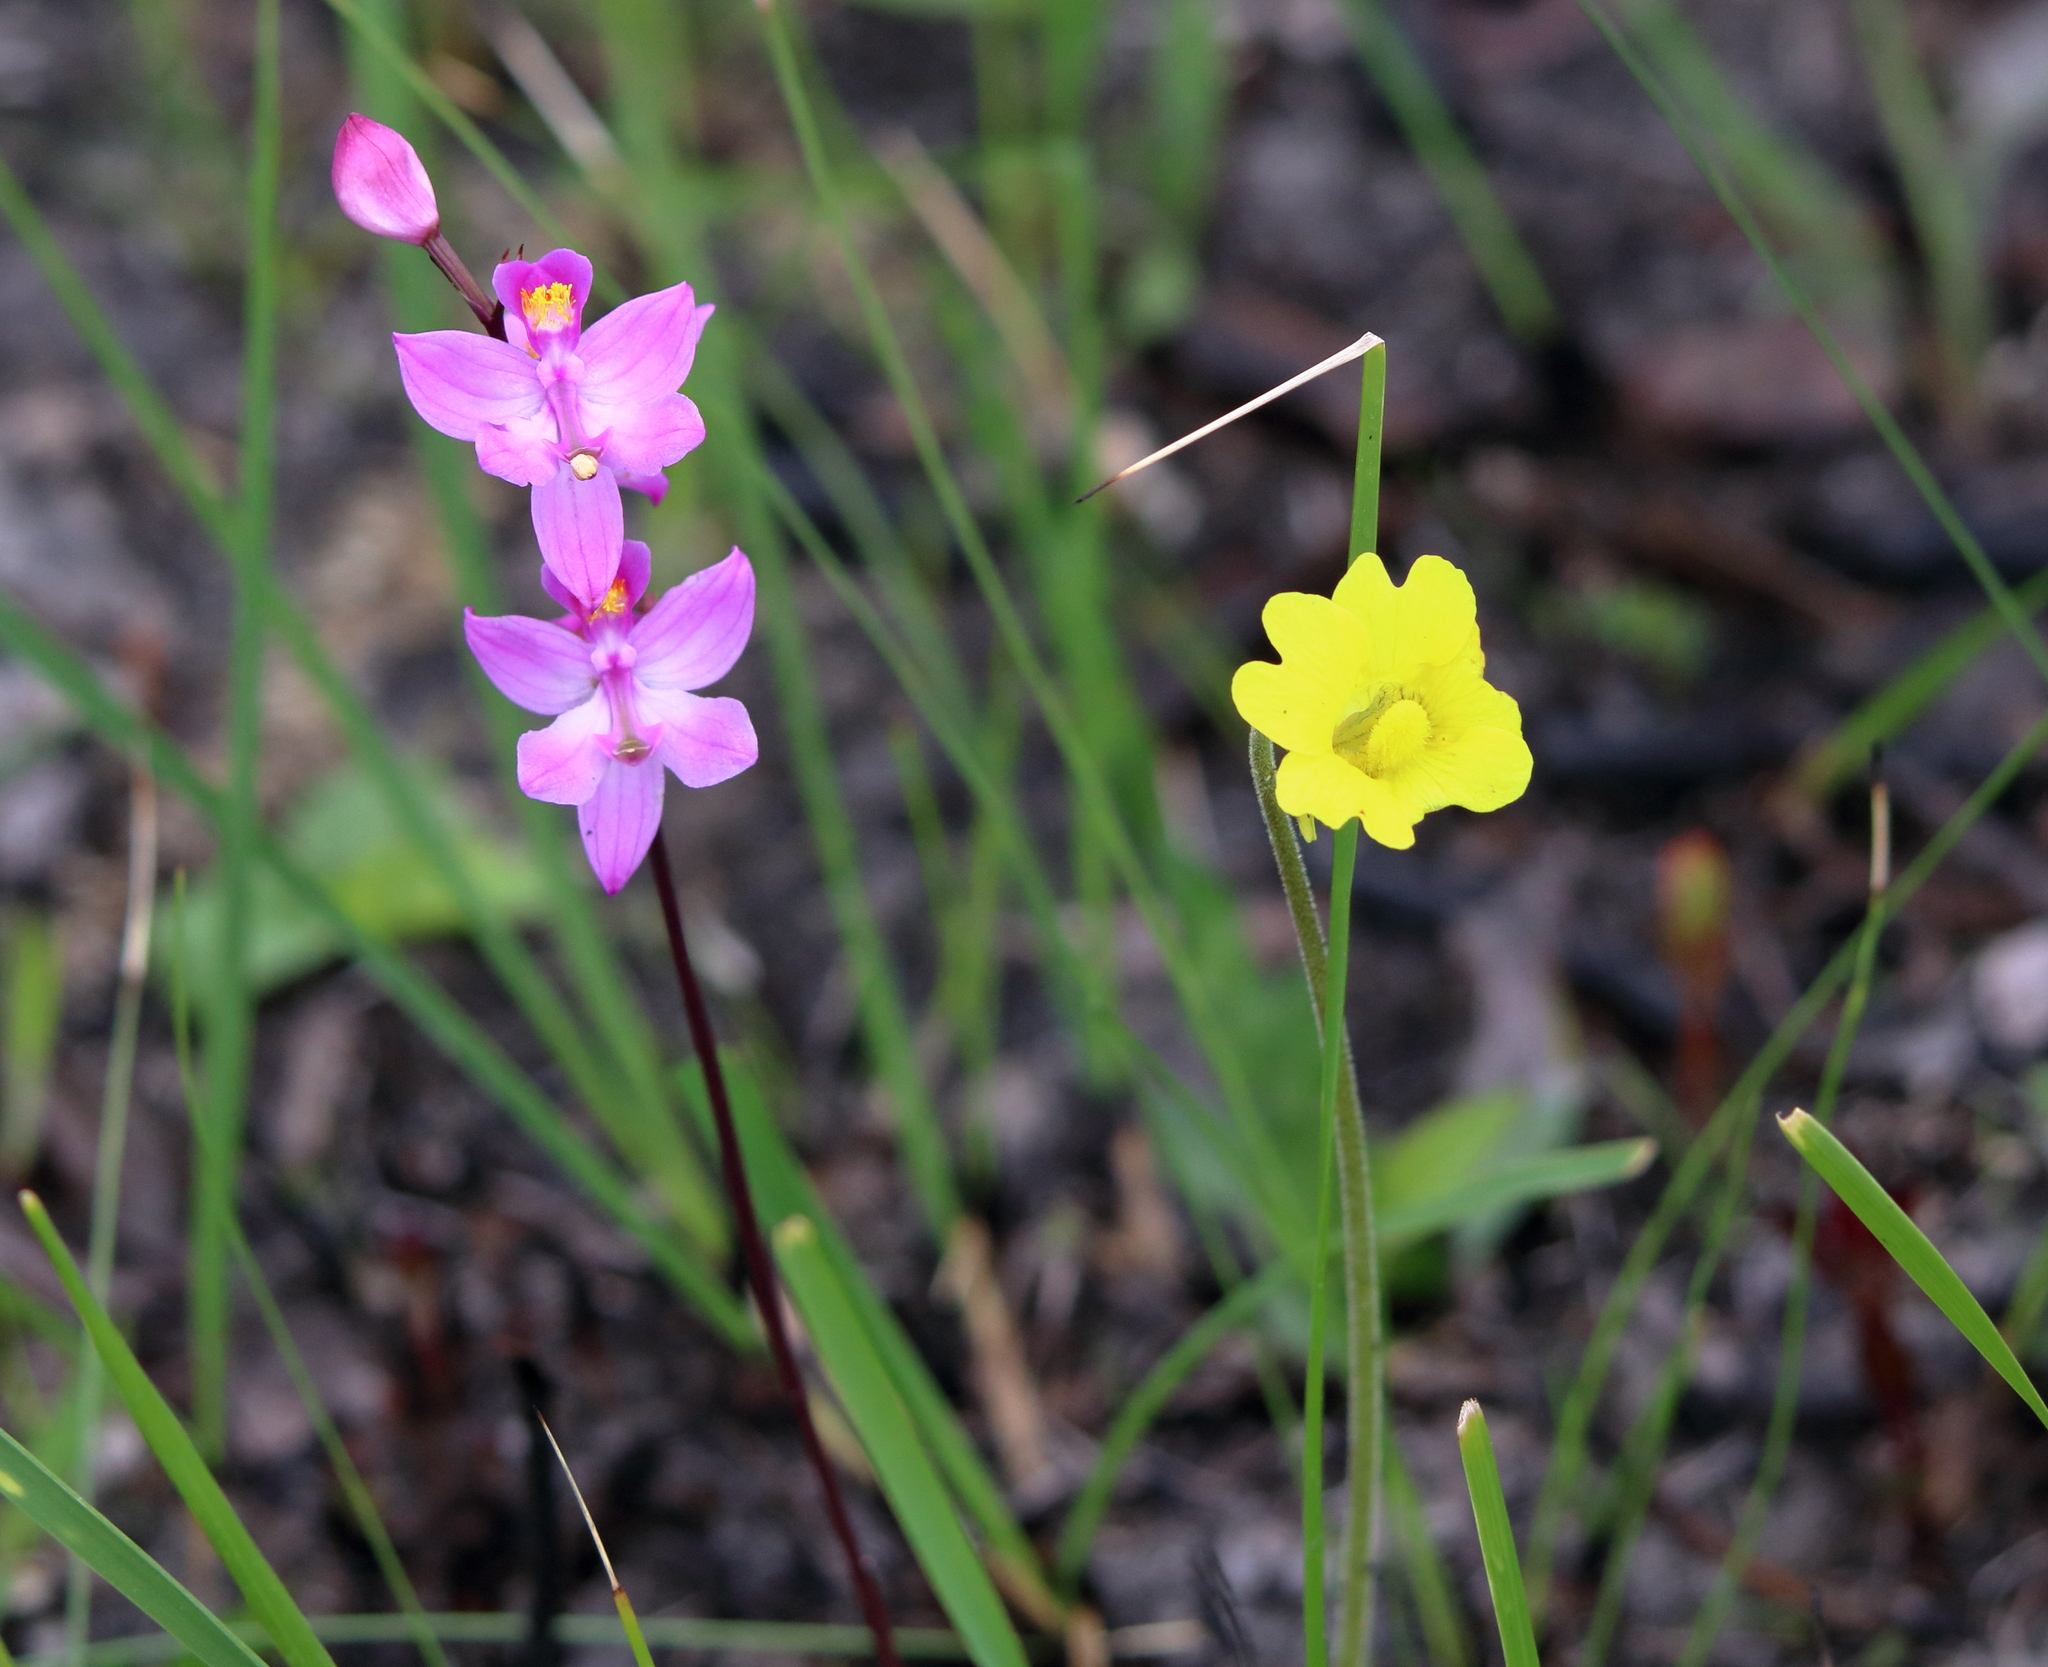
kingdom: Plantae
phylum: Tracheophyta
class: Liliopsida
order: Asparagales
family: Orchidaceae
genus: Calopogon
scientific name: Calopogon multiflorus
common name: Many-flowered grass-pink orchid
